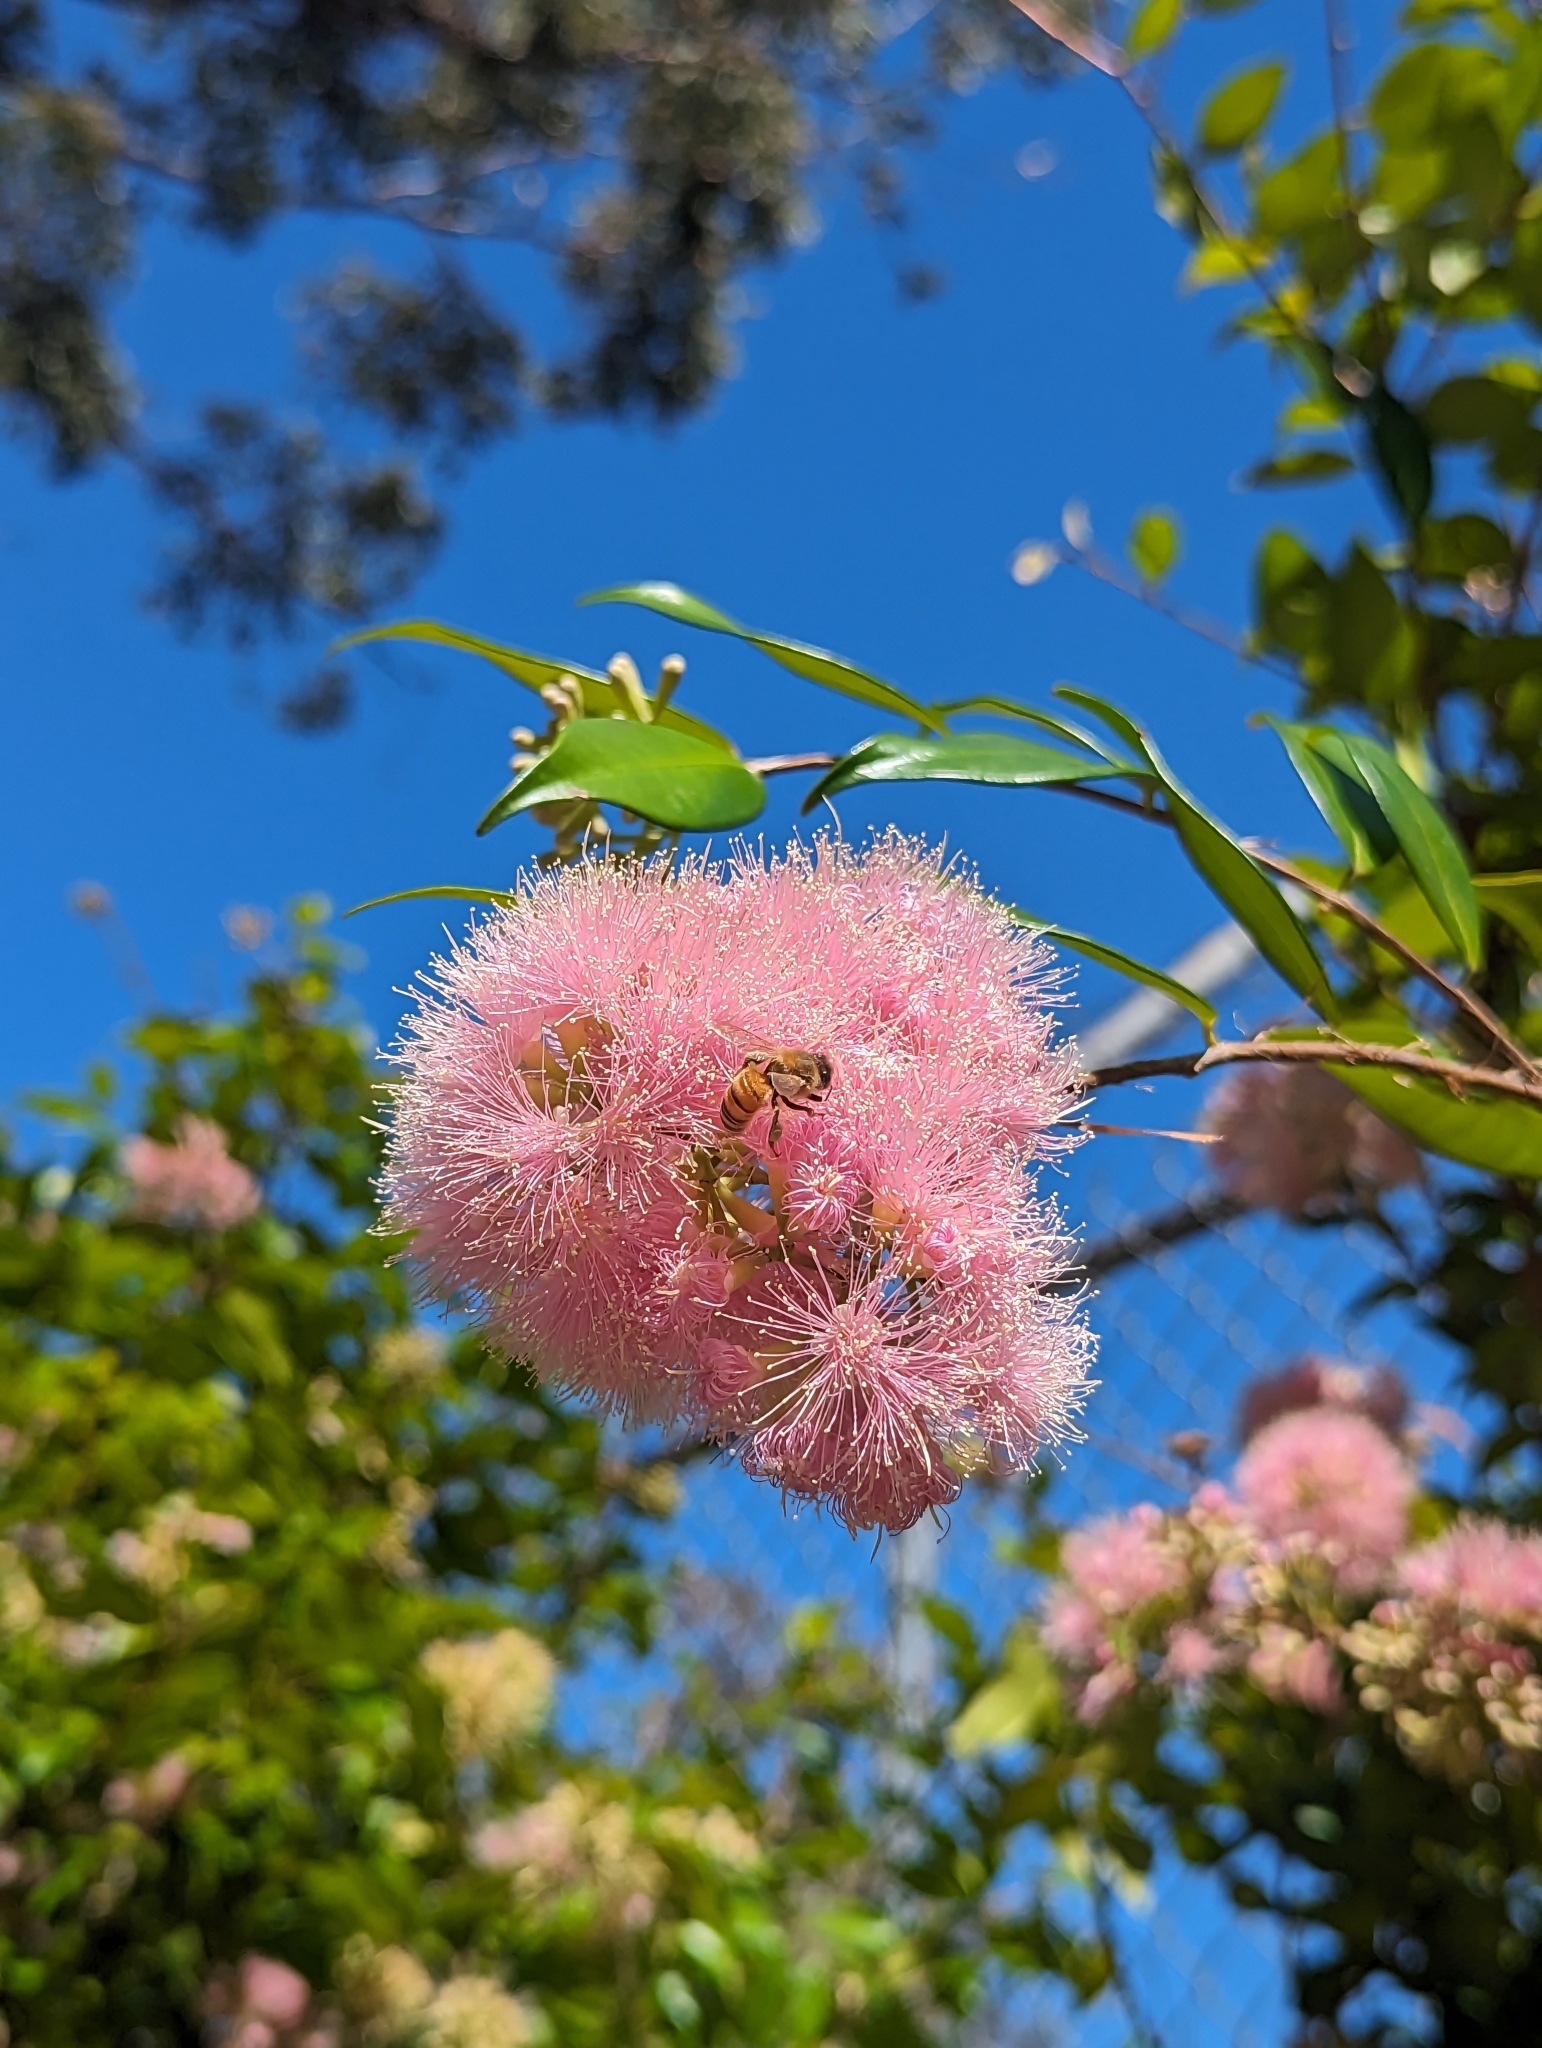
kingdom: Animalia
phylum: Arthropoda
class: Insecta
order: Hymenoptera
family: Apidae
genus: Apis
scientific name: Apis mellifera
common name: Honey bee
